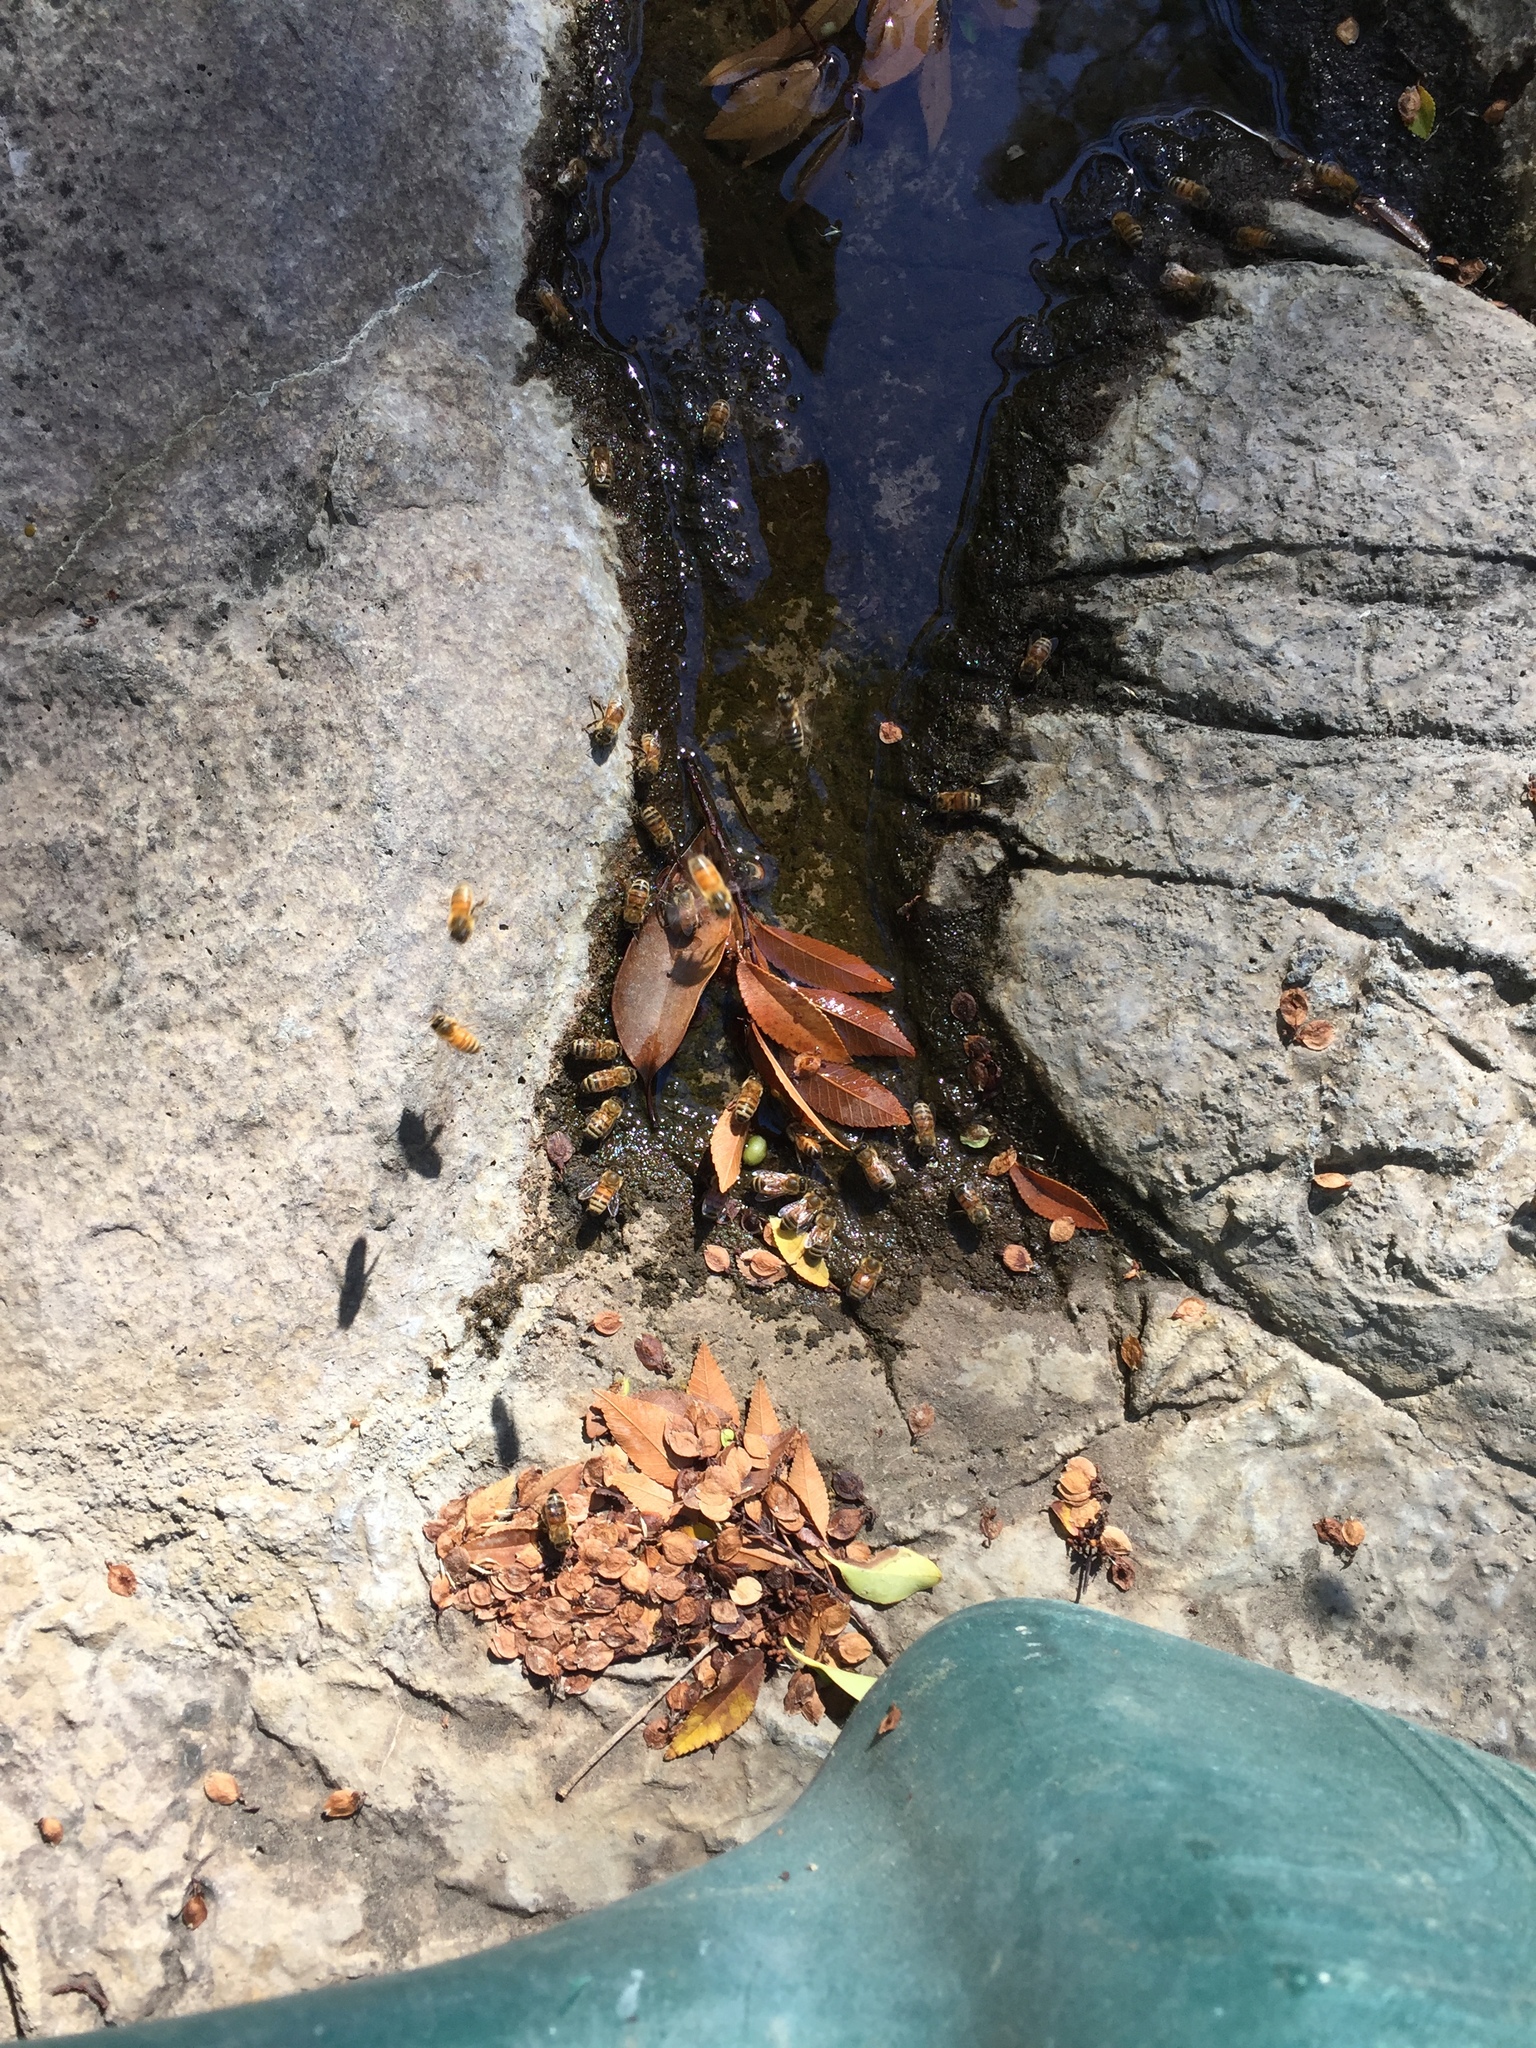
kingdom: Animalia
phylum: Arthropoda
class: Insecta
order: Hymenoptera
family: Apidae
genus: Apis
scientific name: Apis mellifera
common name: Honey bee
